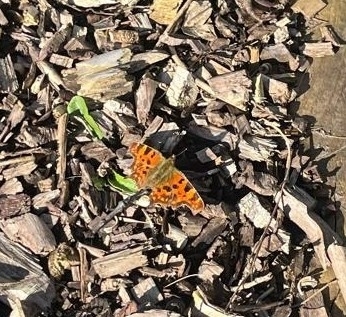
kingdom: Animalia
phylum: Arthropoda
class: Insecta
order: Lepidoptera
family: Nymphalidae
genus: Polygonia
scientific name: Polygonia c-album
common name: Comma
